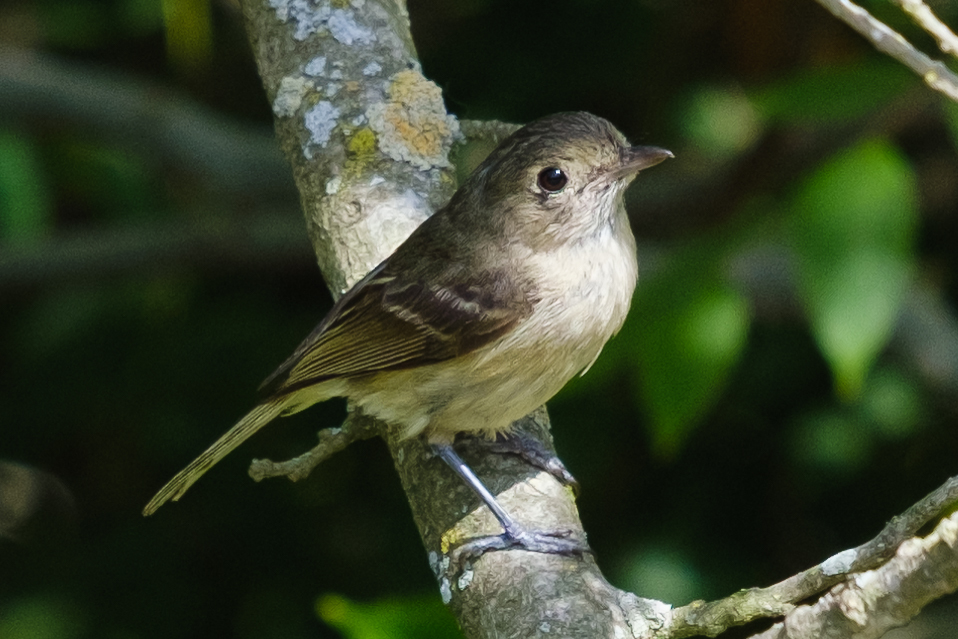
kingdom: Animalia
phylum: Chordata
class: Aves
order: Passeriformes
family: Vireonidae
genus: Vireo
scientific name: Vireo huttoni
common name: Hutton's vireo
